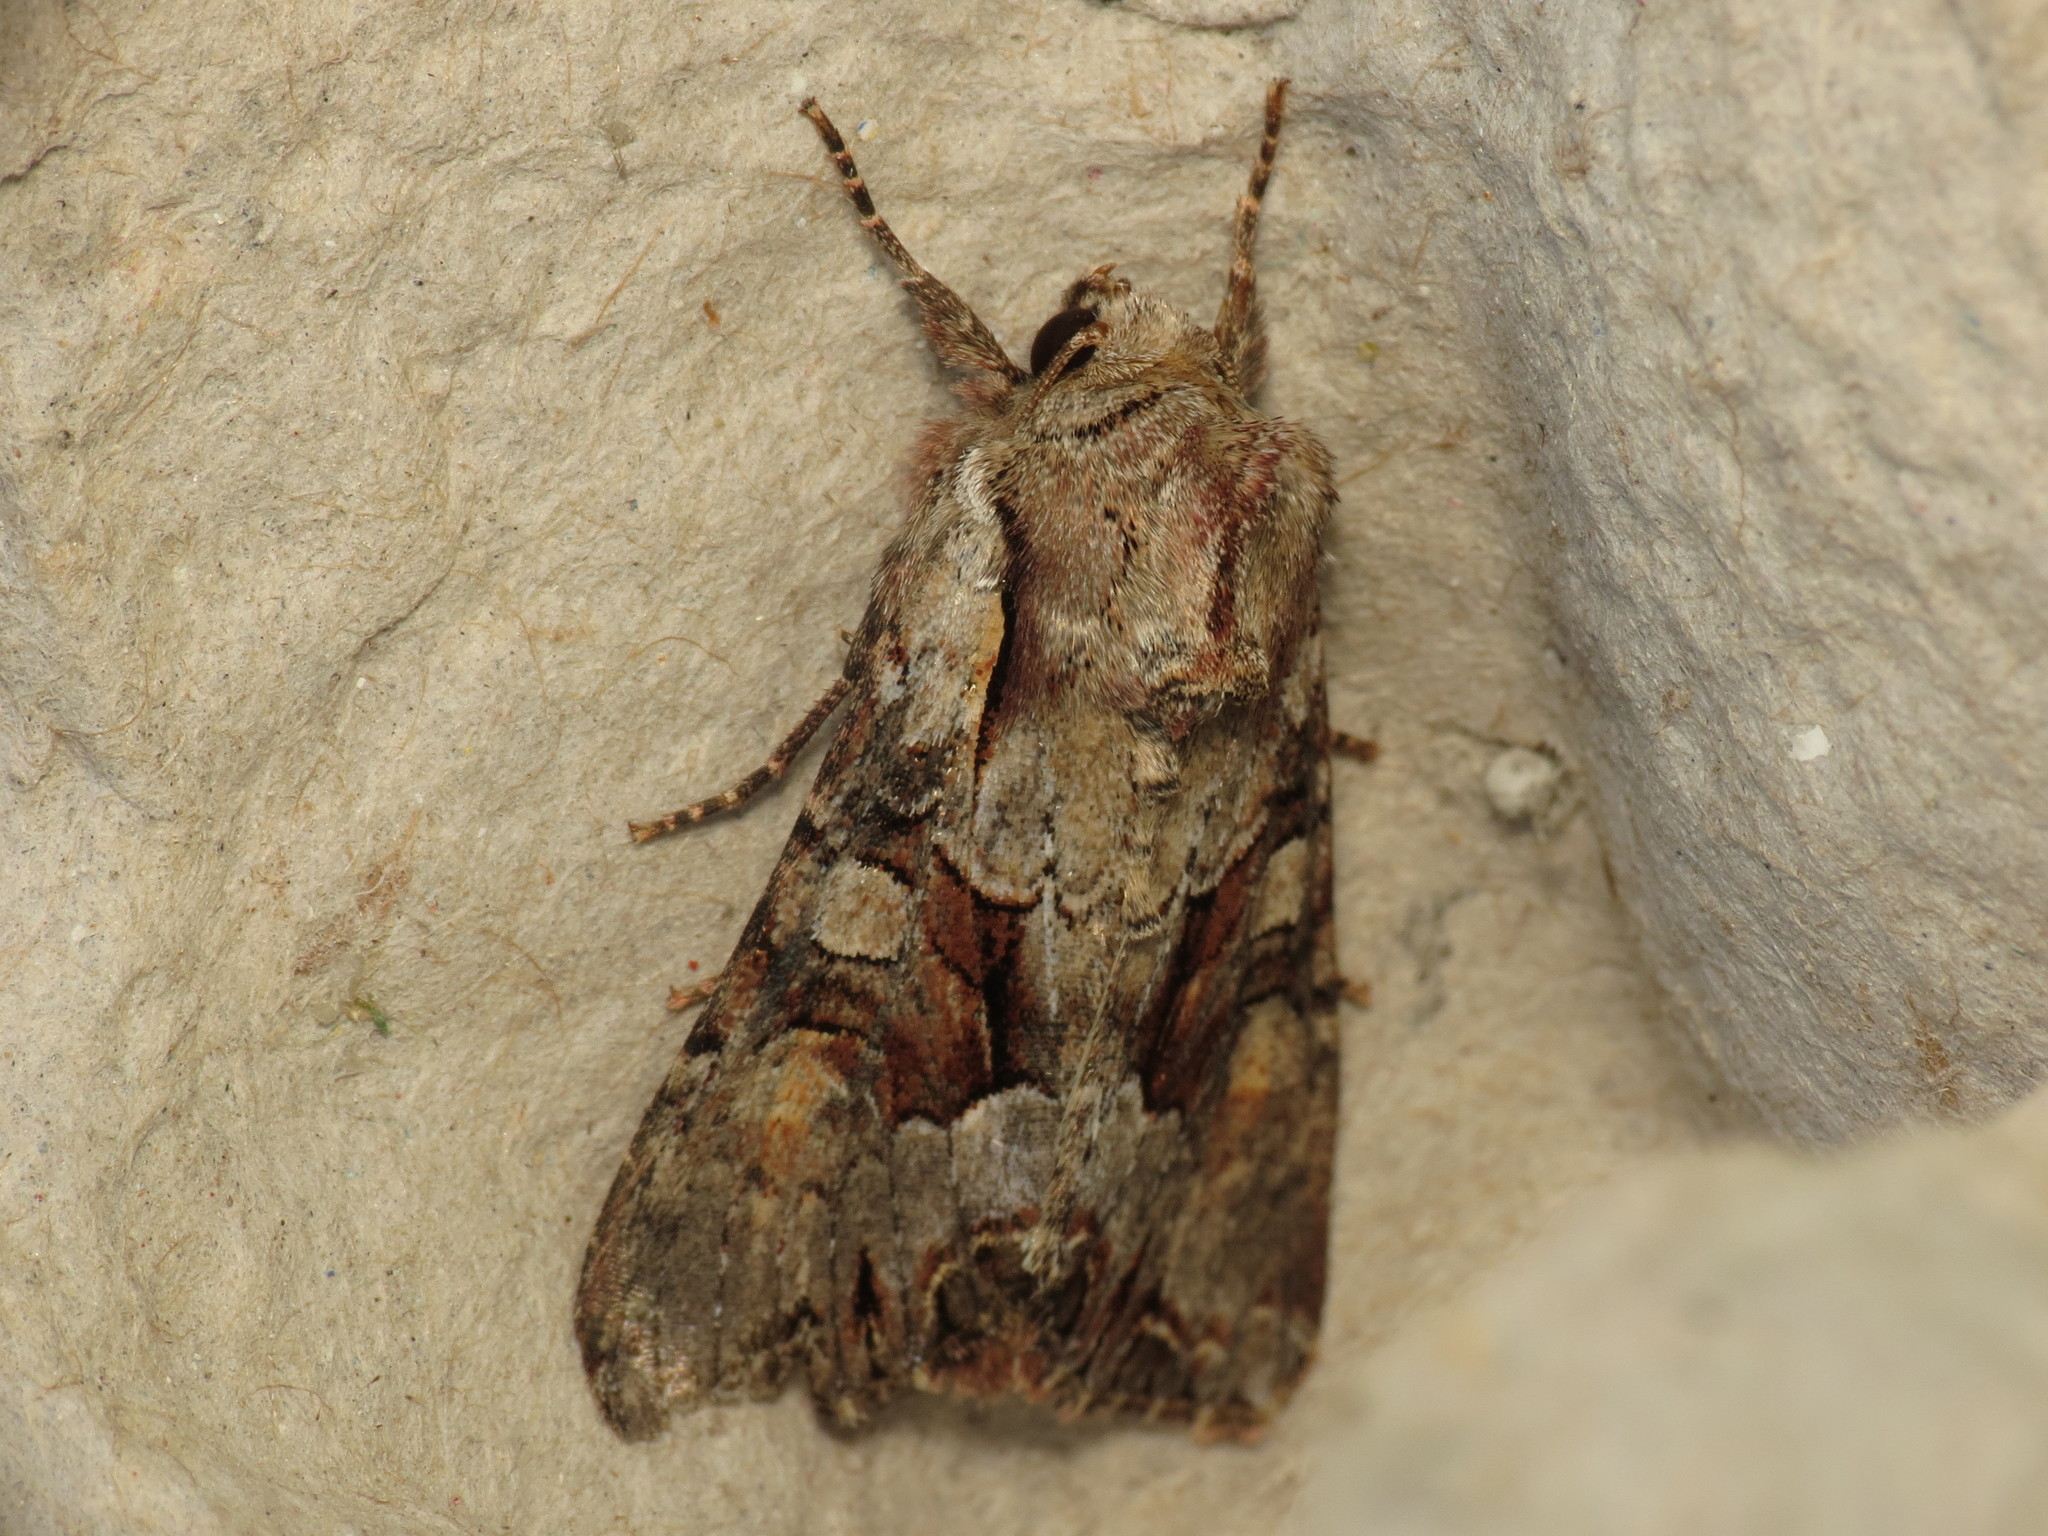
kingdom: Animalia
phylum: Arthropoda
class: Insecta
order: Lepidoptera
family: Noctuidae
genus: Lacanobia
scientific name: Lacanobia w-latinum
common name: Light brocade
